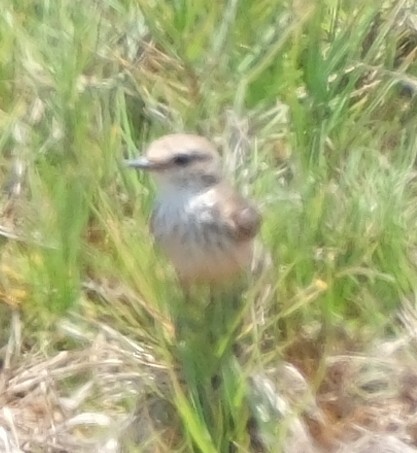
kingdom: Animalia
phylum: Chordata
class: Aves
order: Passeriformes
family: Tyrannidae
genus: Pyrocephalus
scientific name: Pyrocephalus rubinus
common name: Vermilion flycatcher
